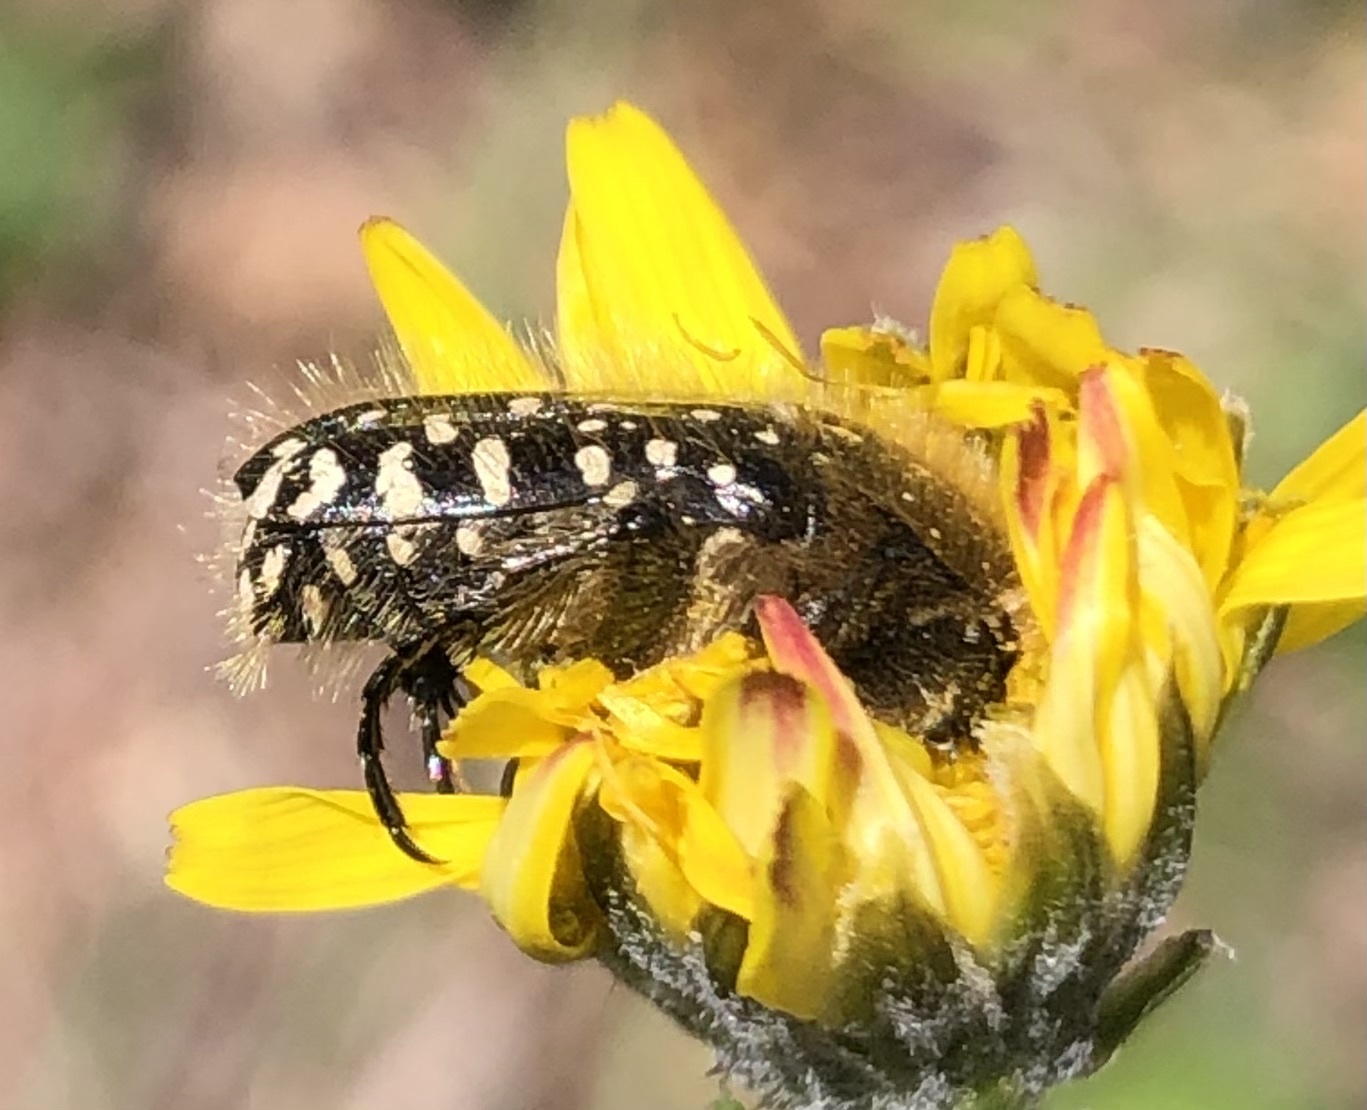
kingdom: Animalia
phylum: Arthropoda
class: Insecta
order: Coleoptera
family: Scarabaeidae
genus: Oxythyrea
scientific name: Oxythyrea funesta
